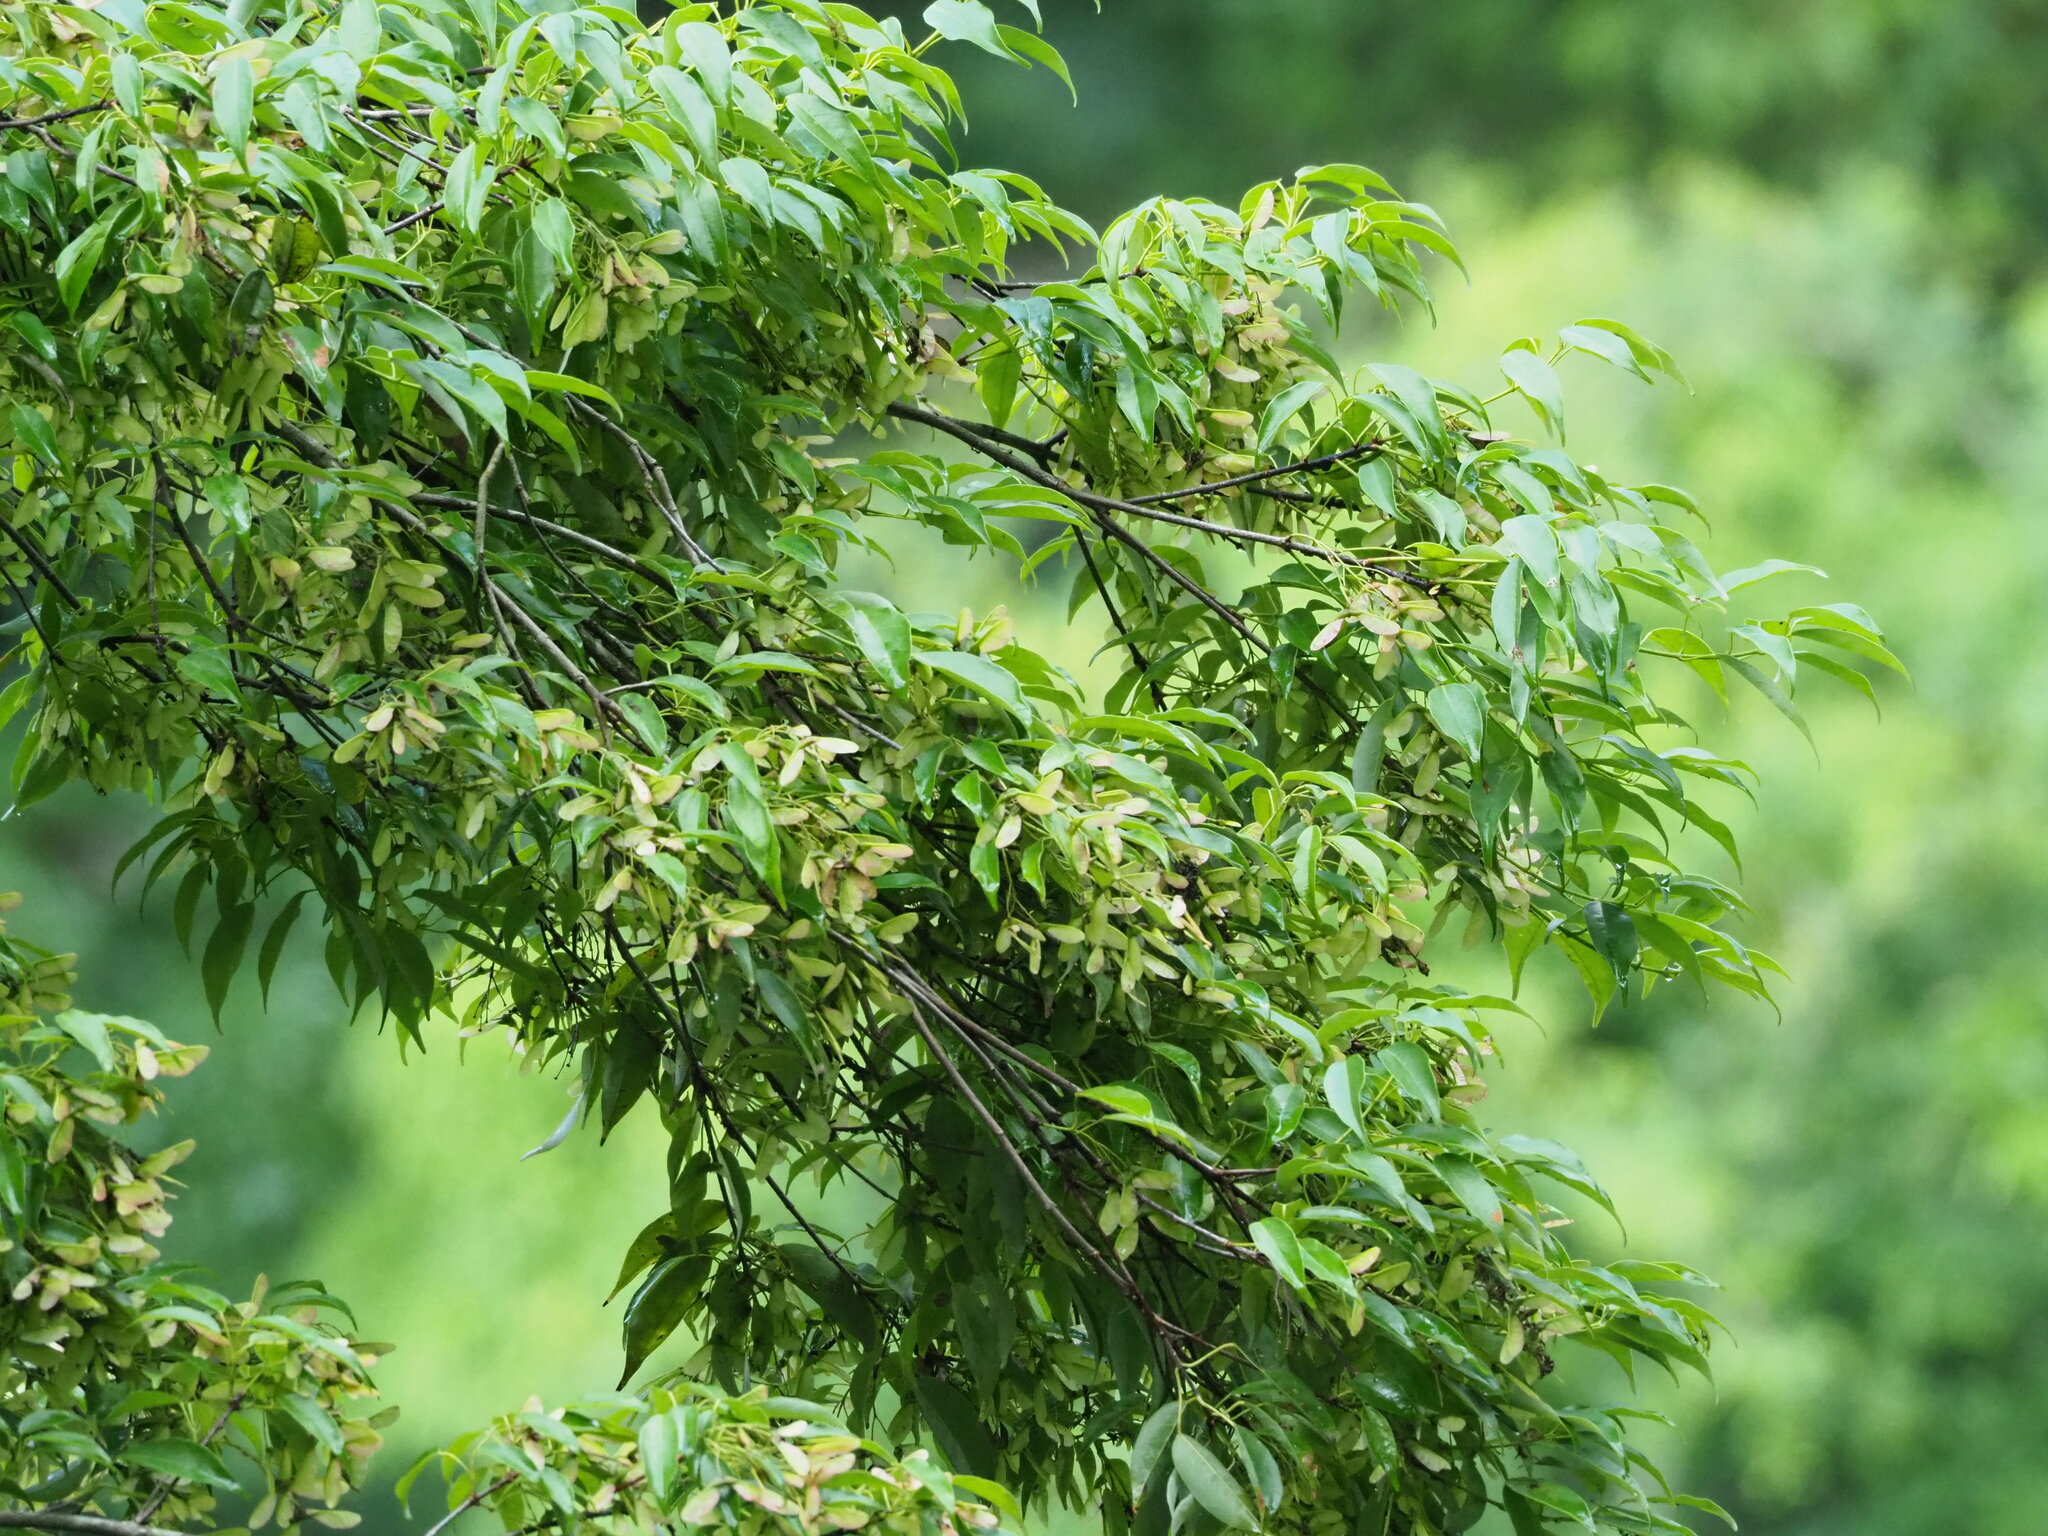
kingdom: Plantae
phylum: Tracheophyta
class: Magnoliopsida
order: Sapindales
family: Sapindaceae
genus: Acer
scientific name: Acer oblongum
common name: Himalayan maple
